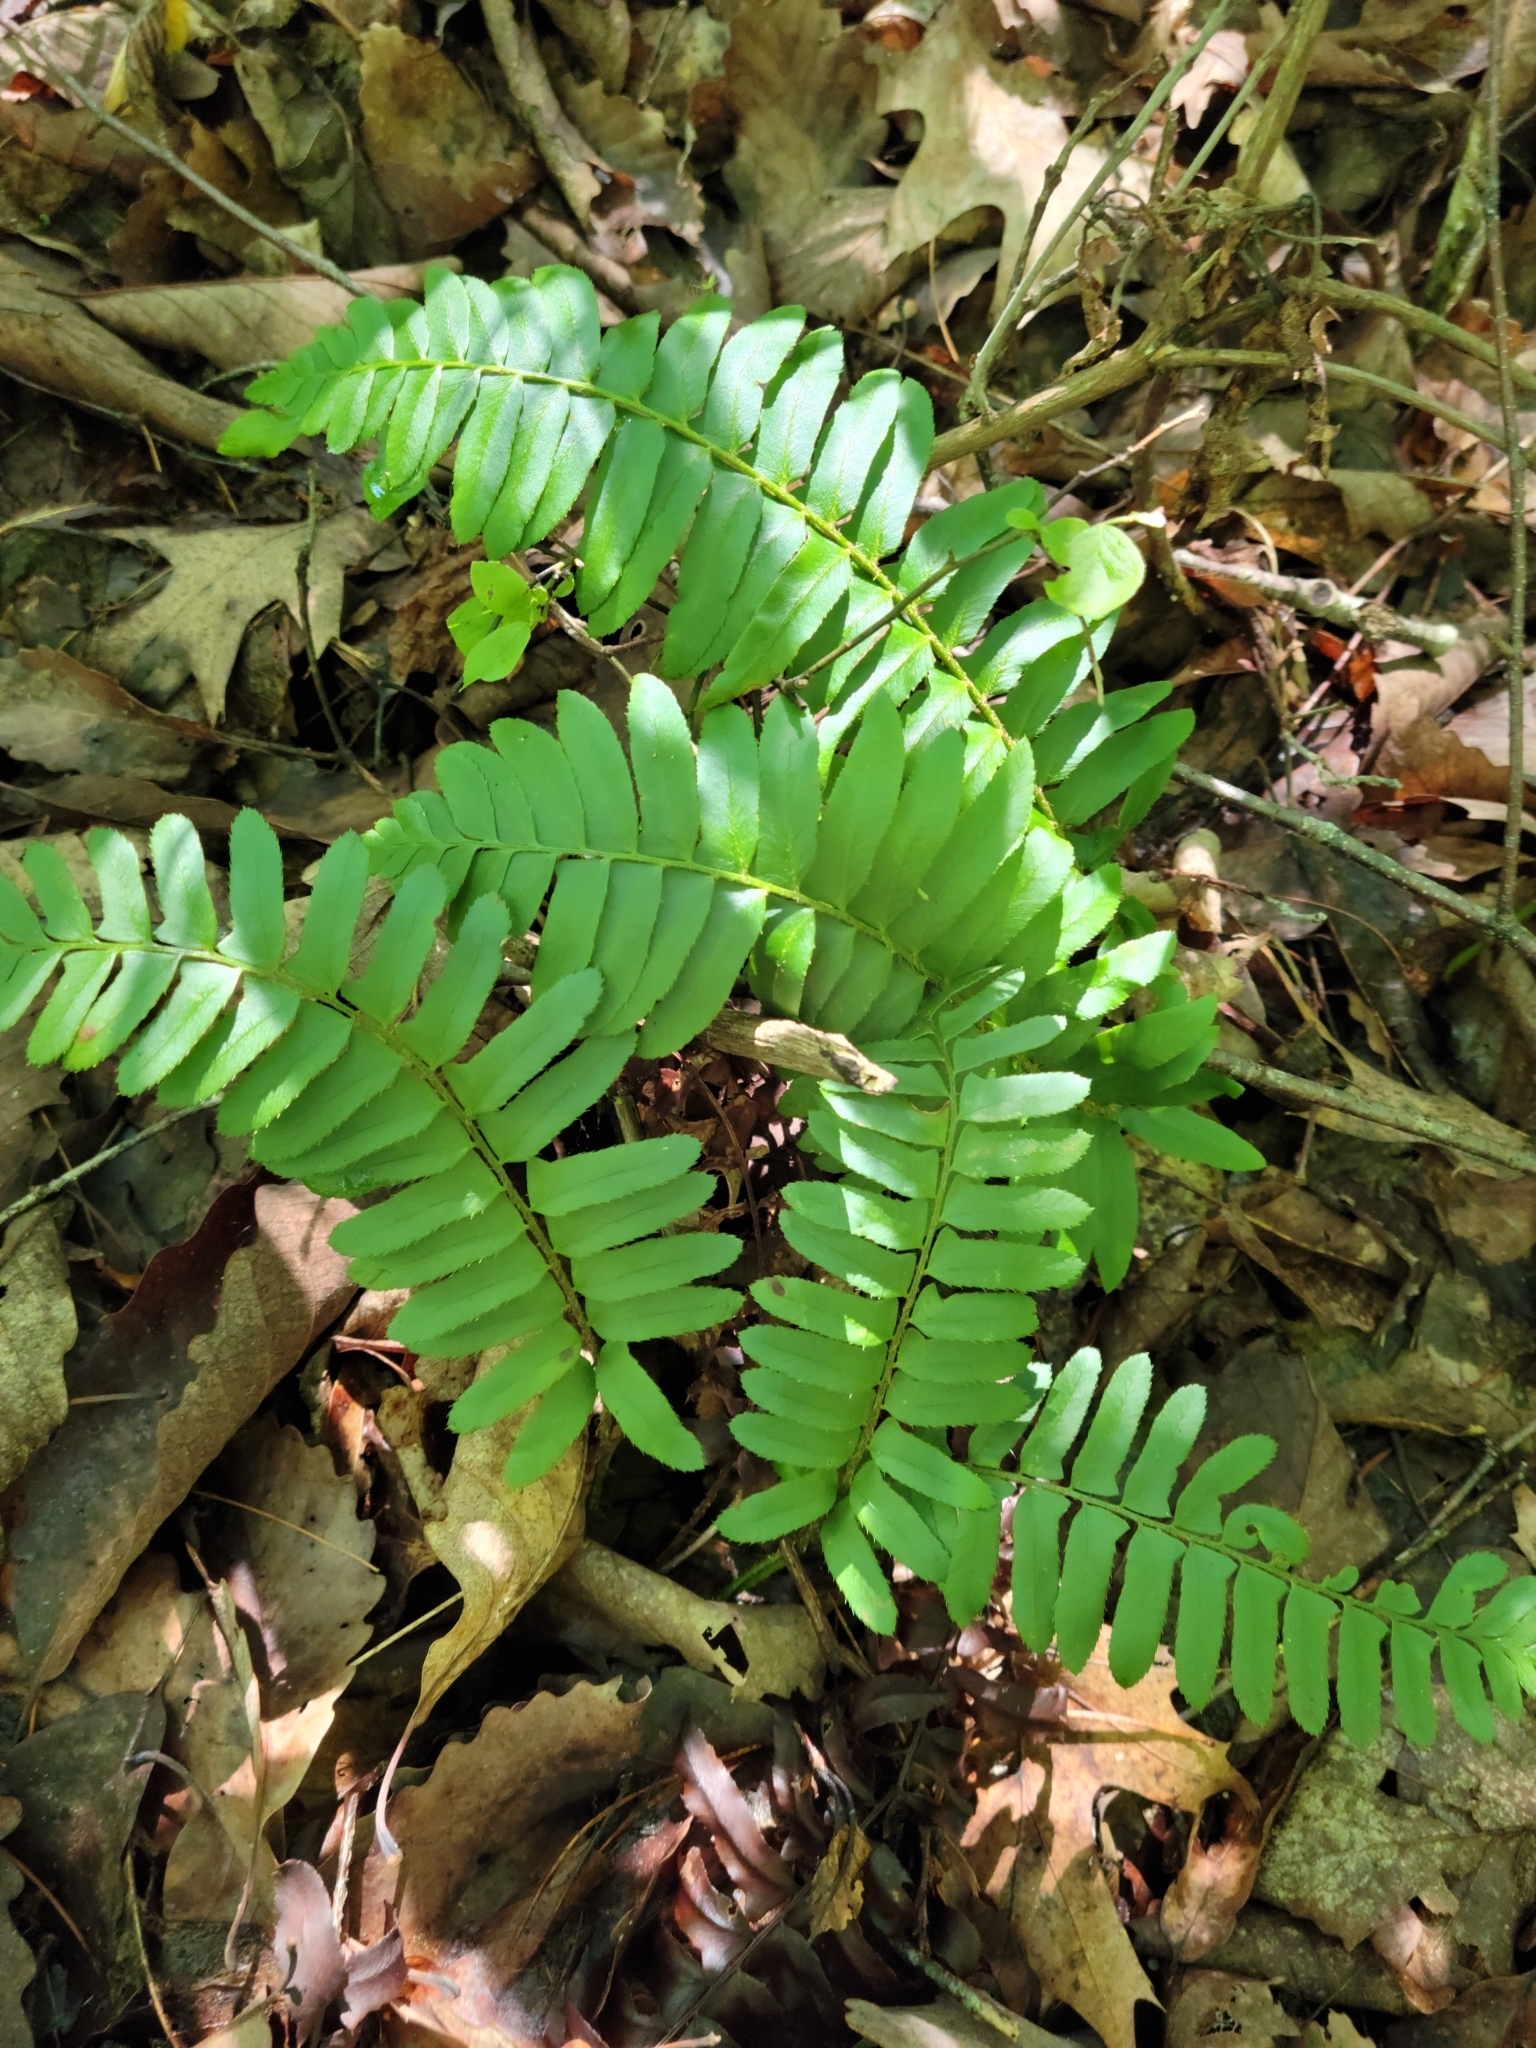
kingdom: Plantae
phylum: Tracheophyta
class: Polypodiopsida
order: Polypodiales
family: Dryopteridaceae
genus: Polystichum
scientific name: Polystichum acrostichoides
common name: Christmas fern
